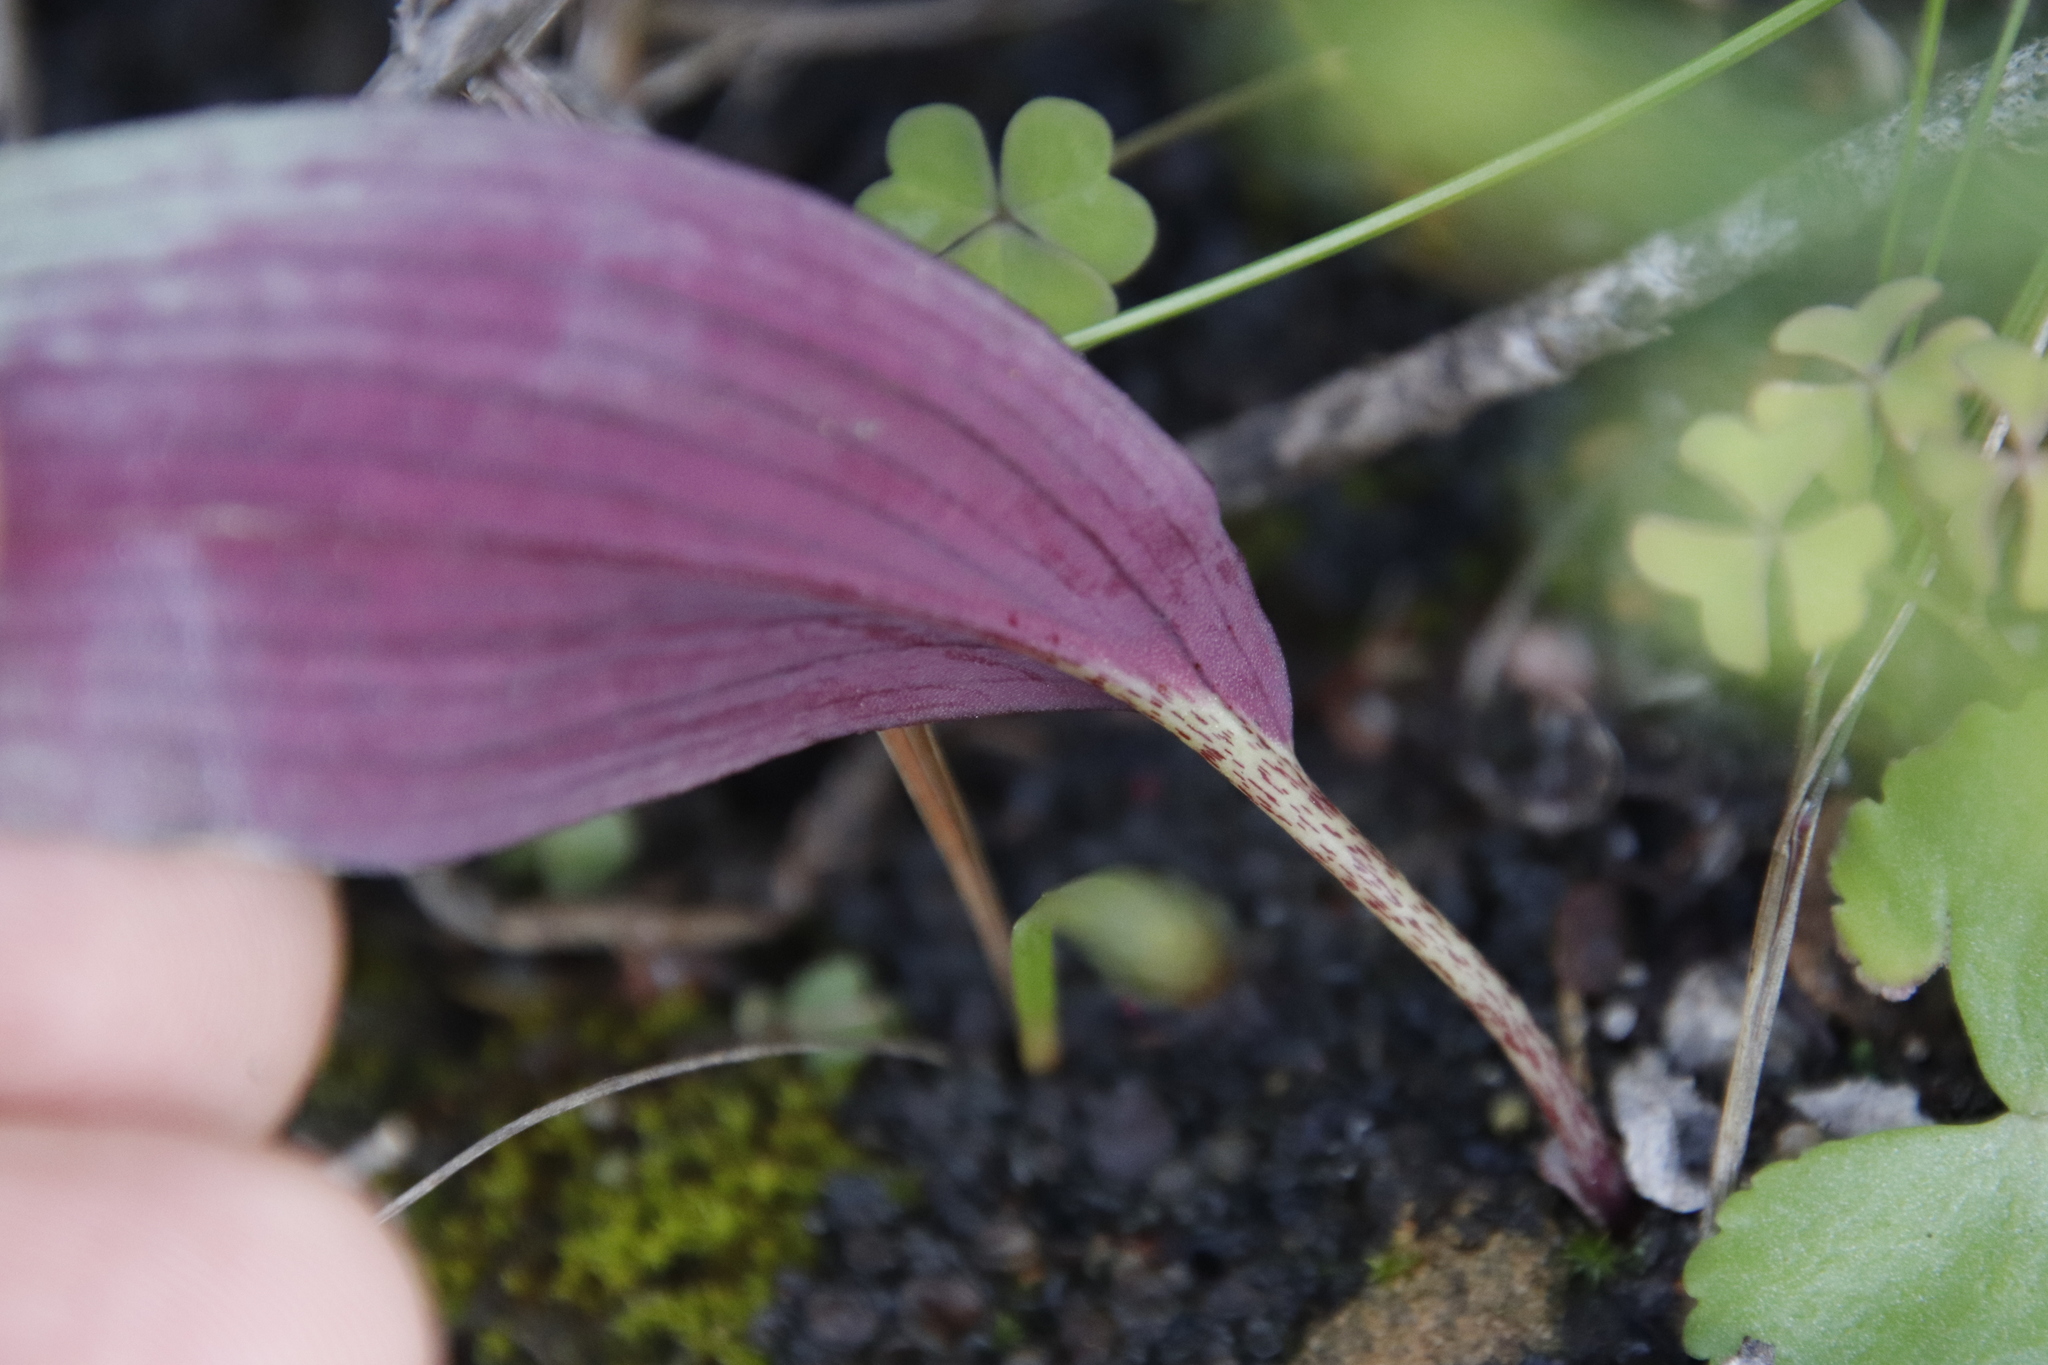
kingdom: Plantae
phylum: Tracheophyta
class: Liliopsida
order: Asparagales
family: Asparagaceae
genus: Eriospermum
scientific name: Eriospermum lanceifolium
